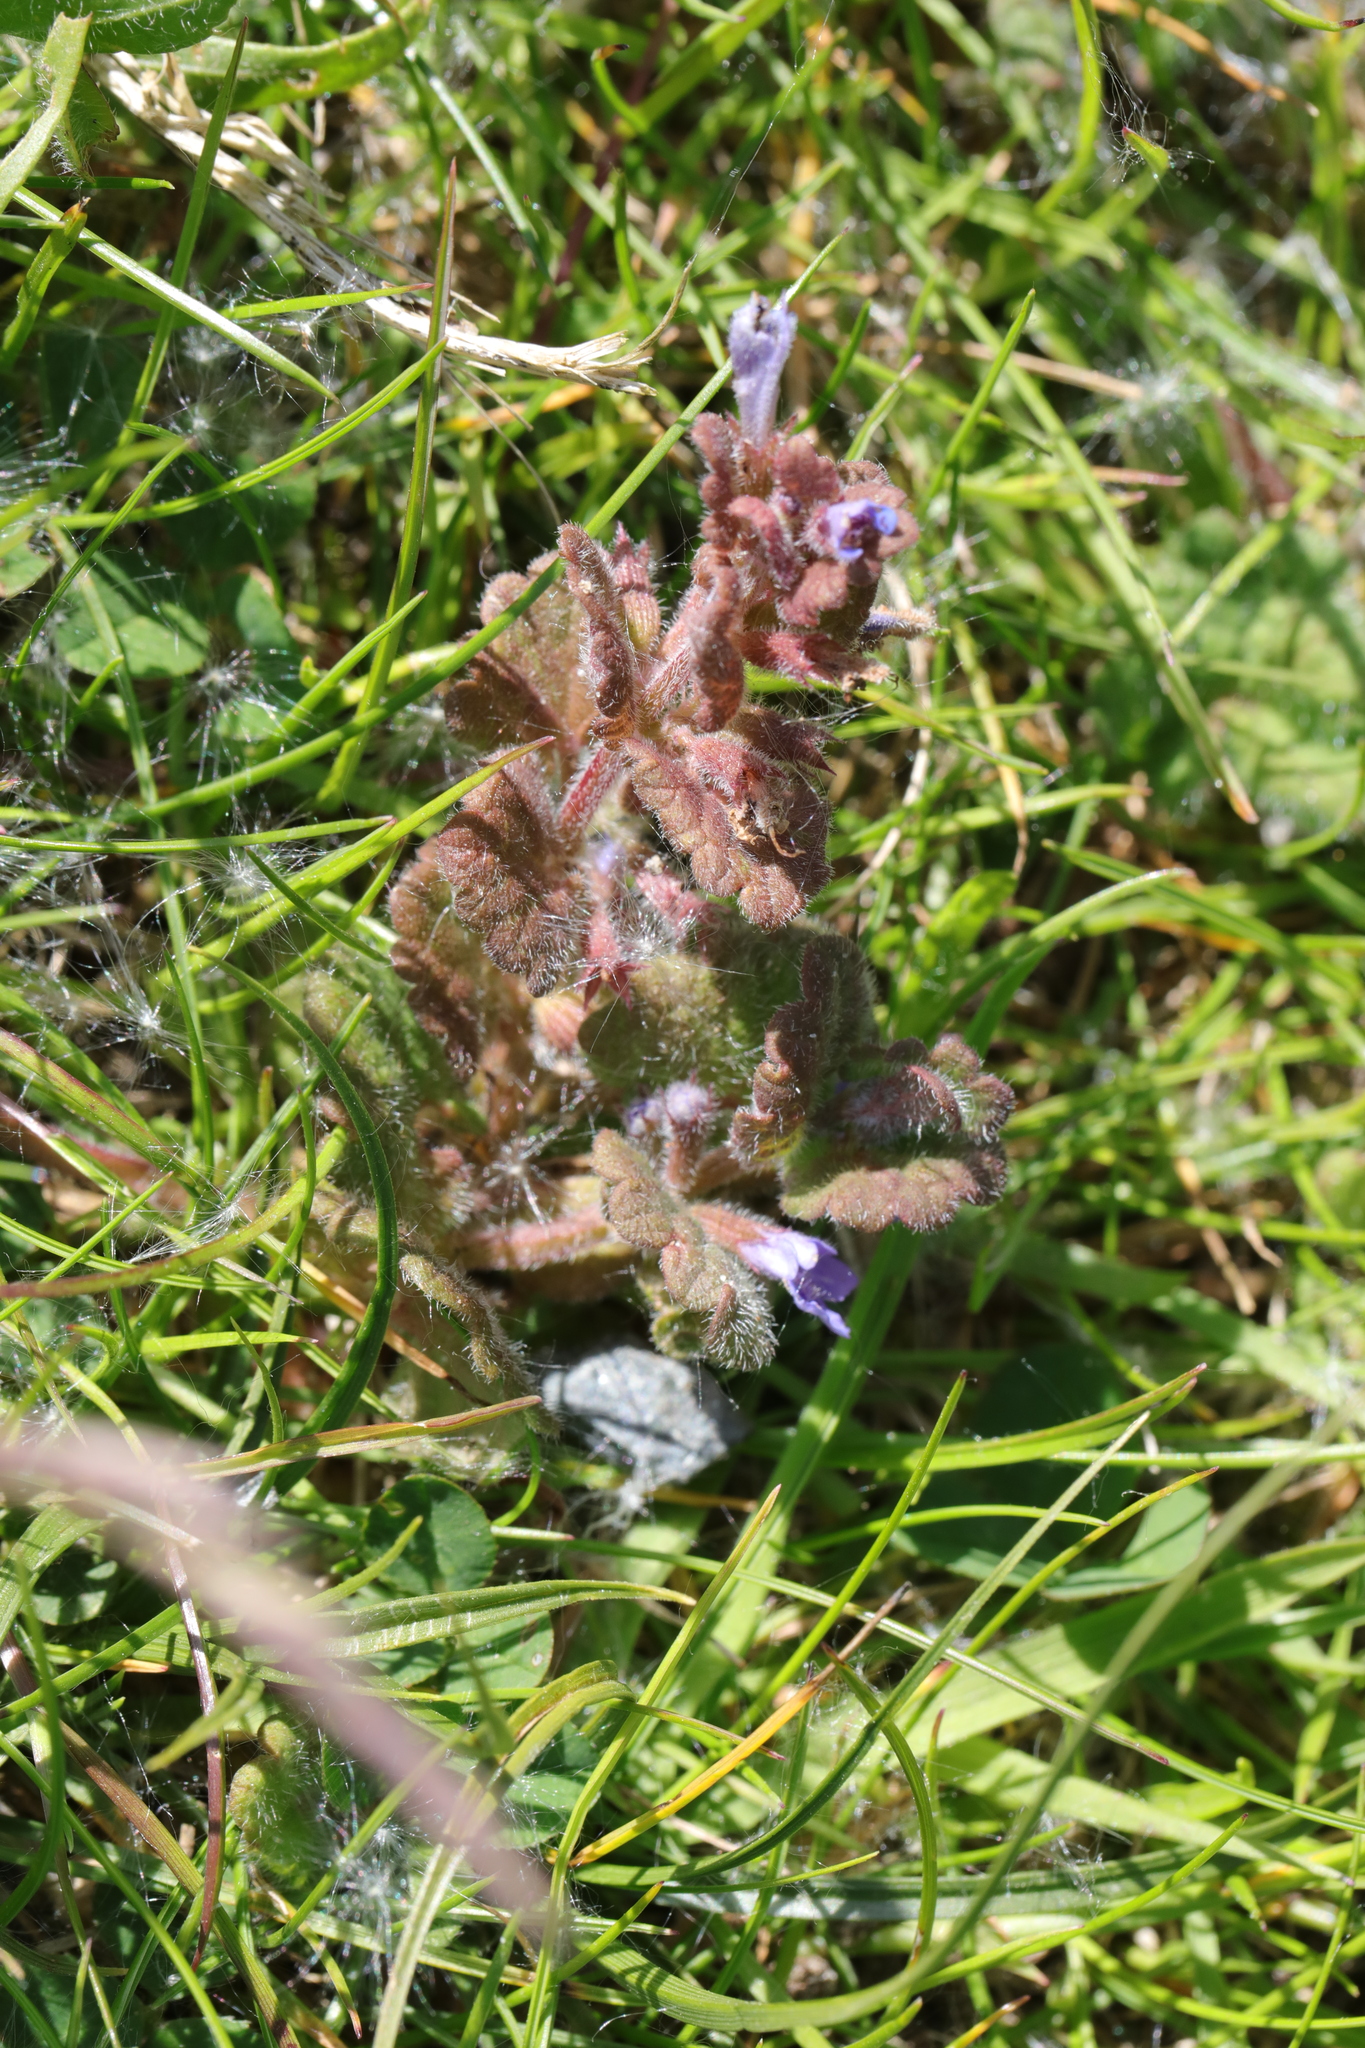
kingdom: Plantae
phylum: Tracheophyta
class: Magnoliopsida
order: Lamiales
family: Lamiaceae
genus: Glechoma
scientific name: Glechoma hederacea
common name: Ground ivy
